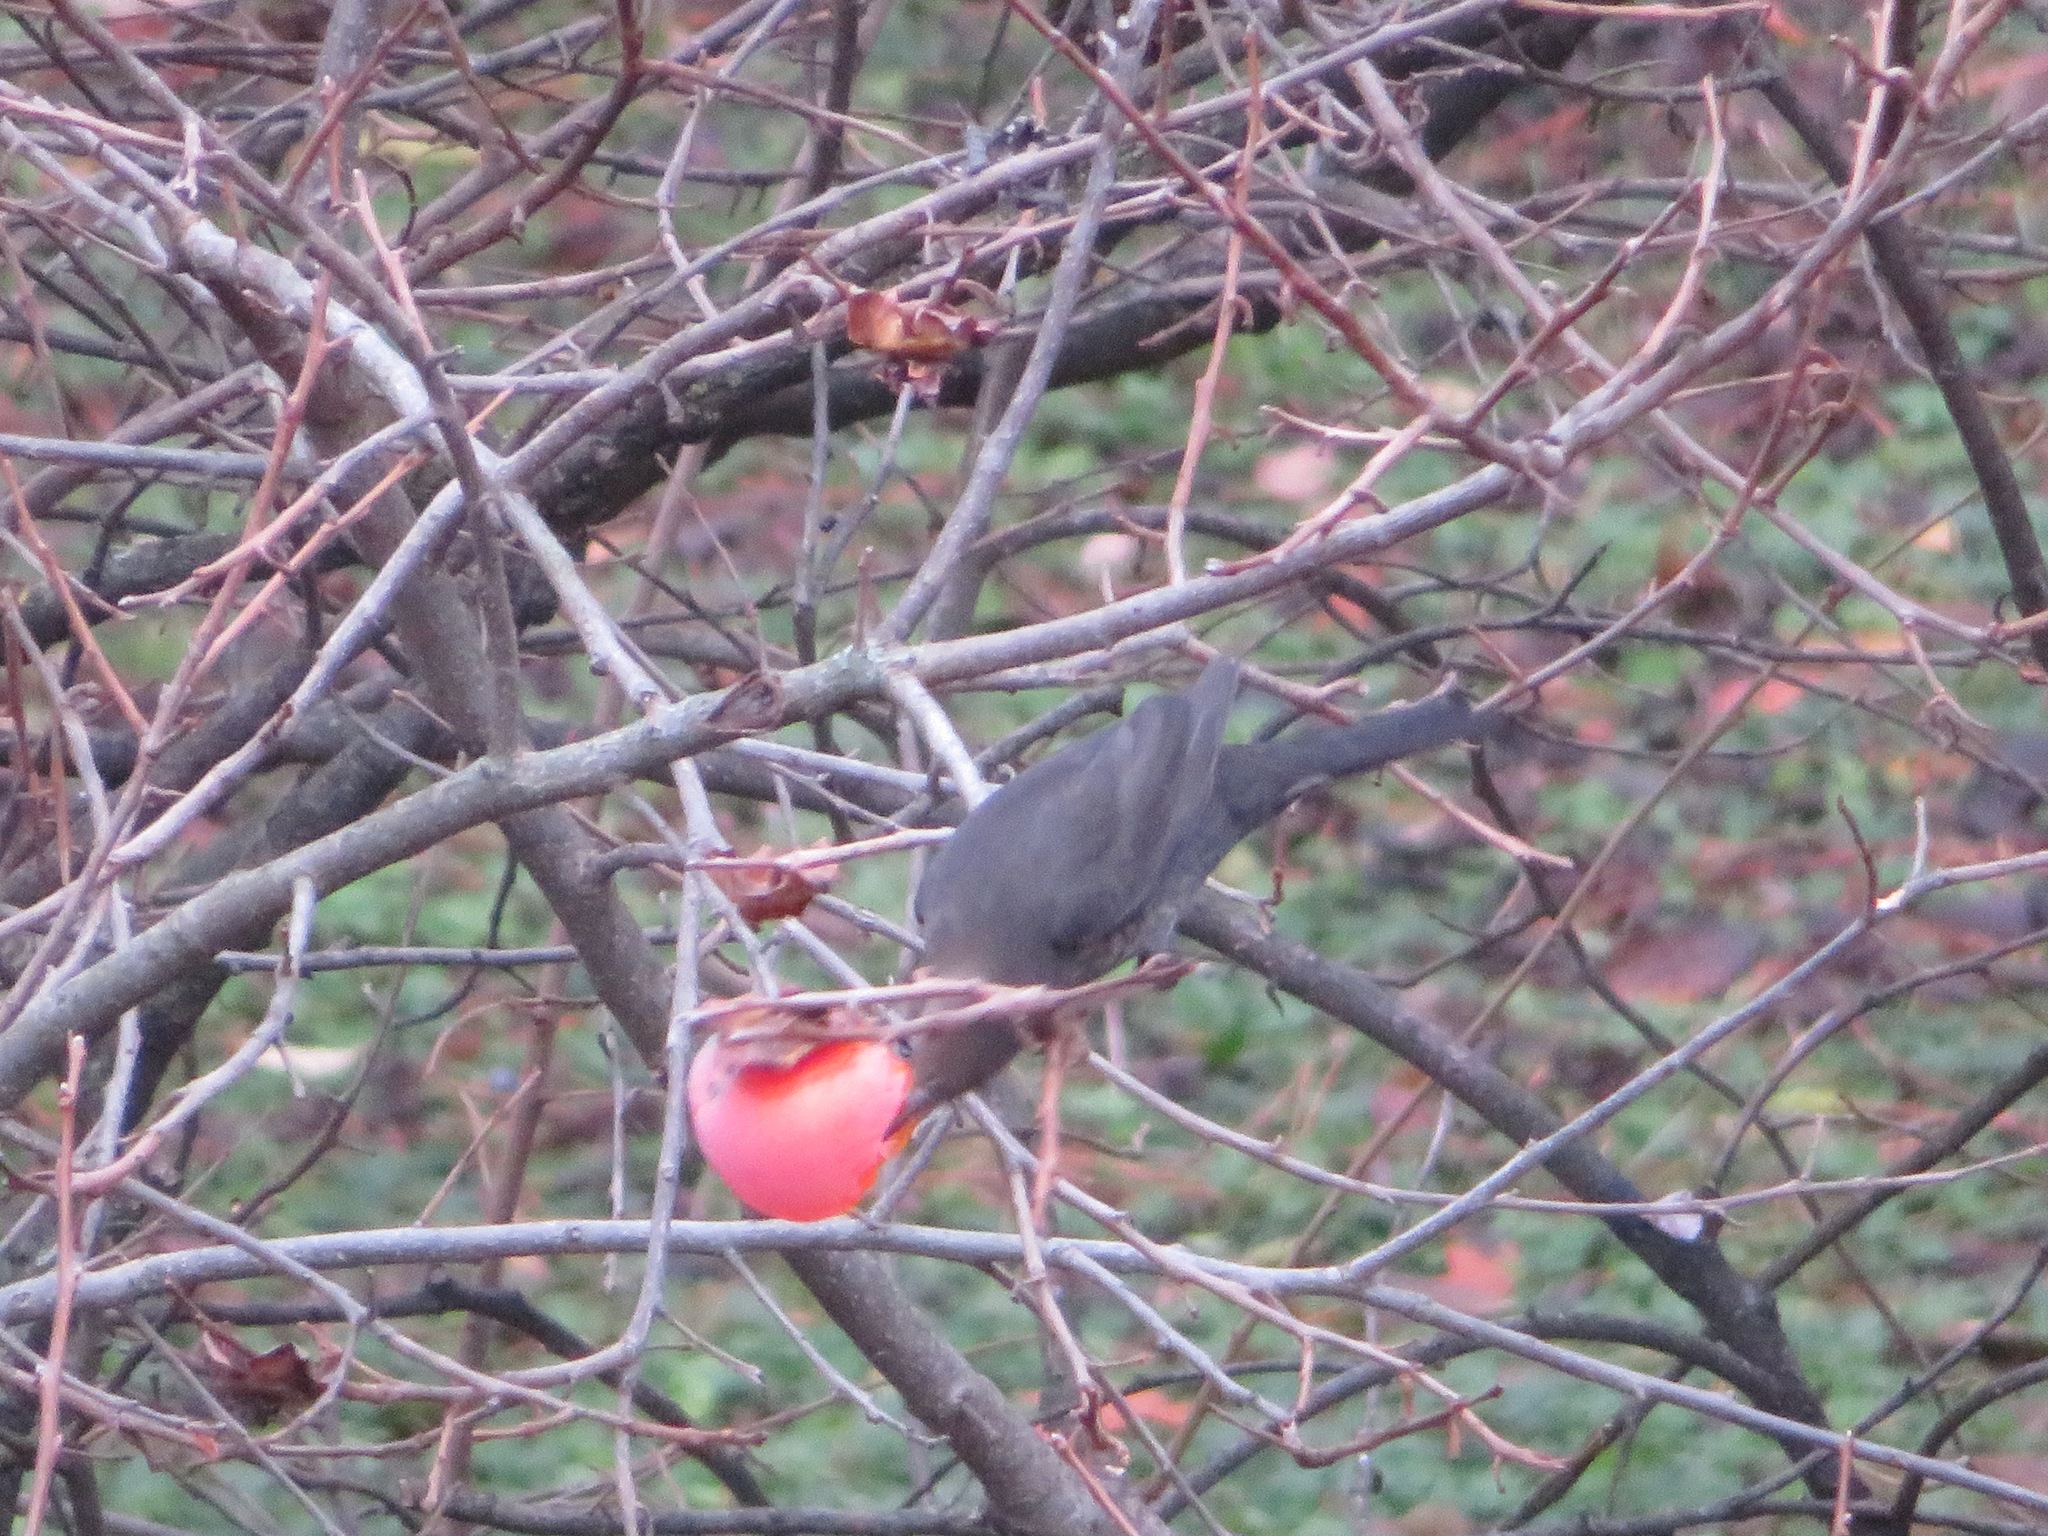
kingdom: Animalia
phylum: Chordata
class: Aves
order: Passeriformes
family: Turdidae
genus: Turdus
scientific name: Turdus merula
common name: Common blackbird
